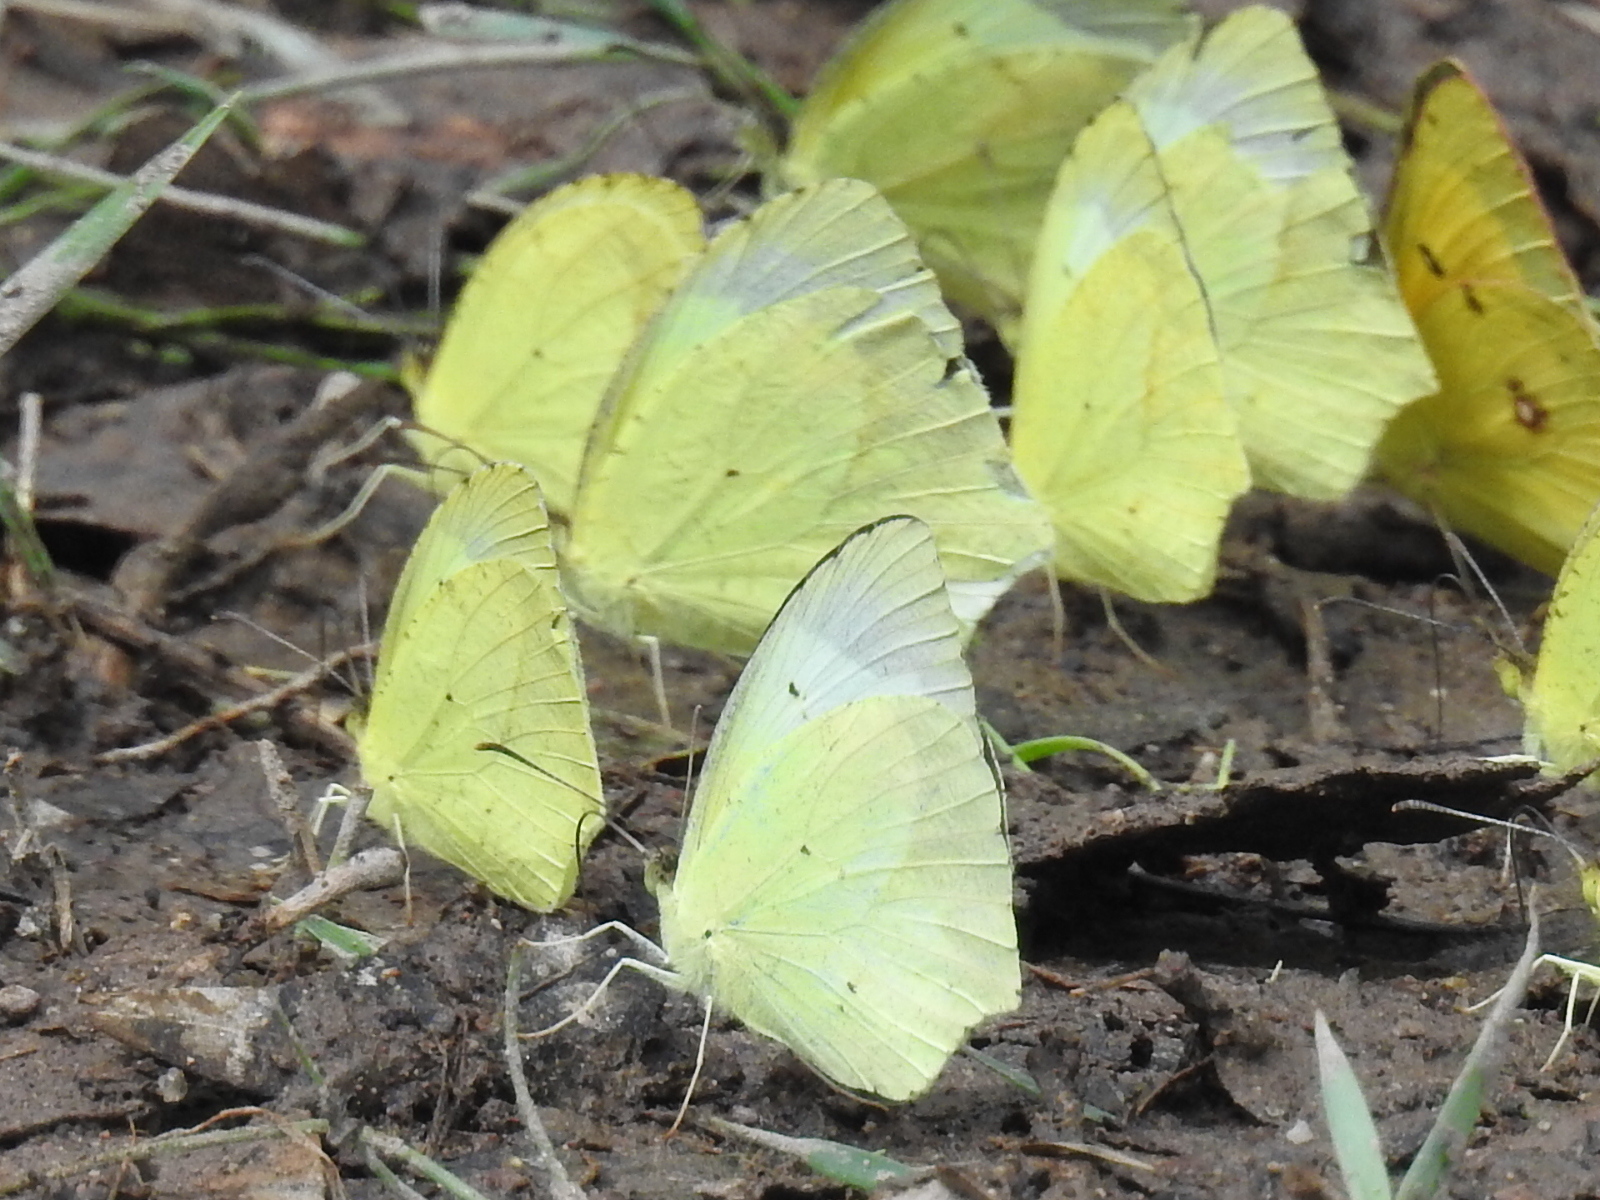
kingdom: Animalia
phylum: Arthropoda
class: Insecta
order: Lepidoptera
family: Pieridae
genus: Abaeis
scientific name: Abaeis mexicana
